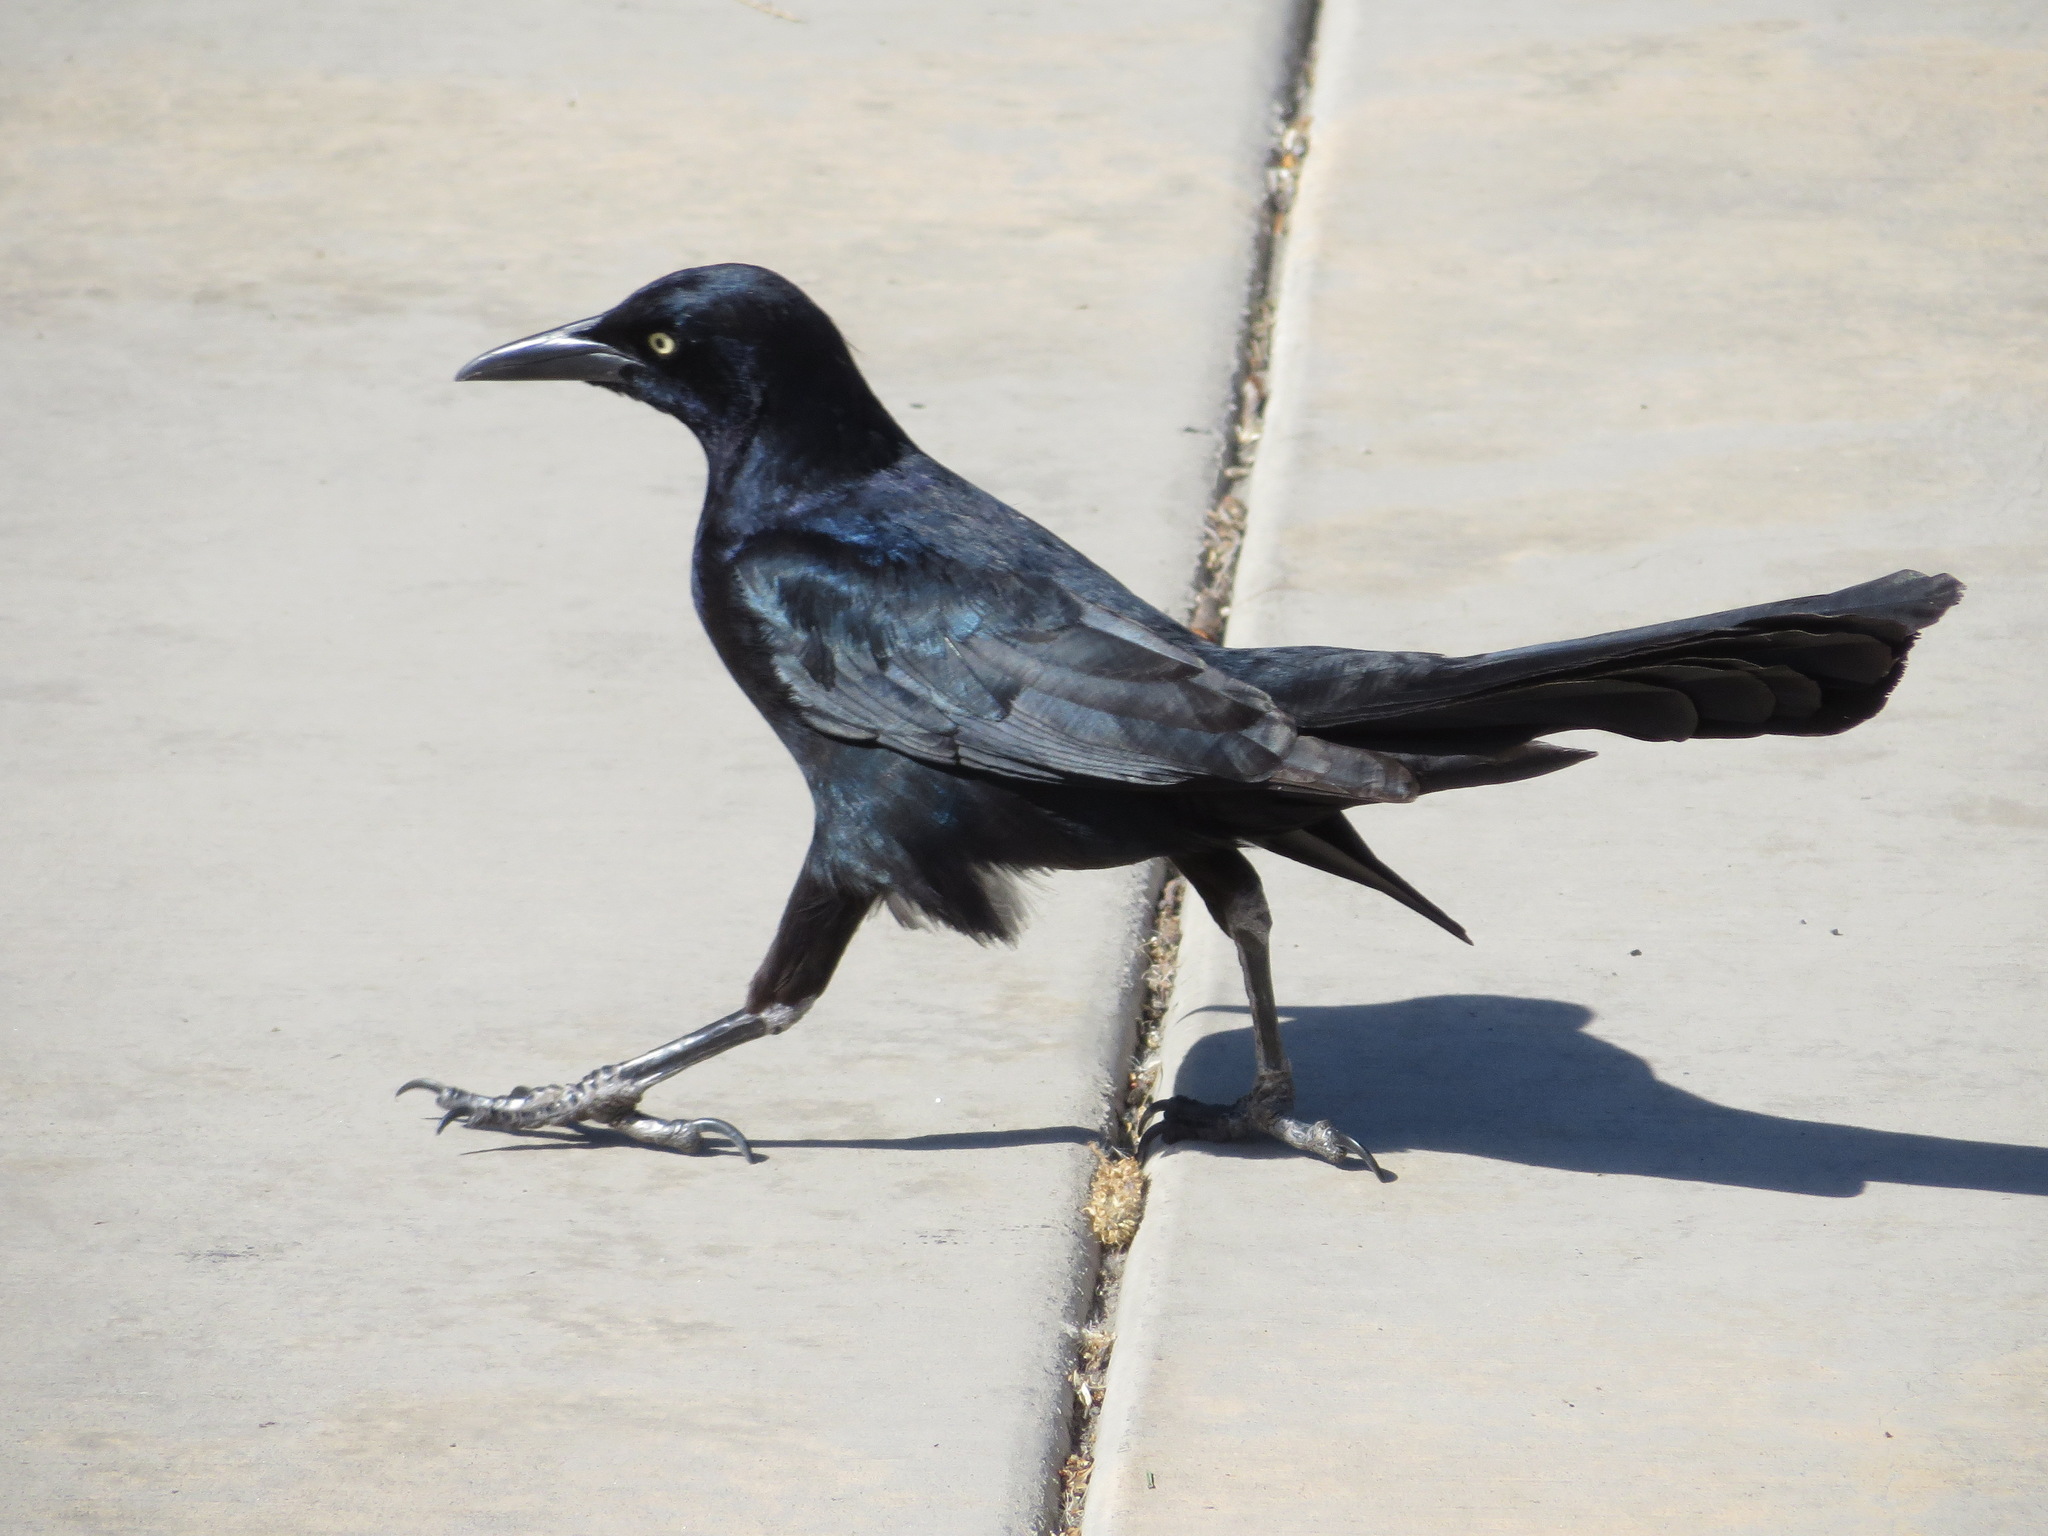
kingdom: Animalia
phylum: Chordata
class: Aves
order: Passeriformes
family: Icteridae
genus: Quiscalus
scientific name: Quiscalus mexicanus
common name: Great-tailed grackle
